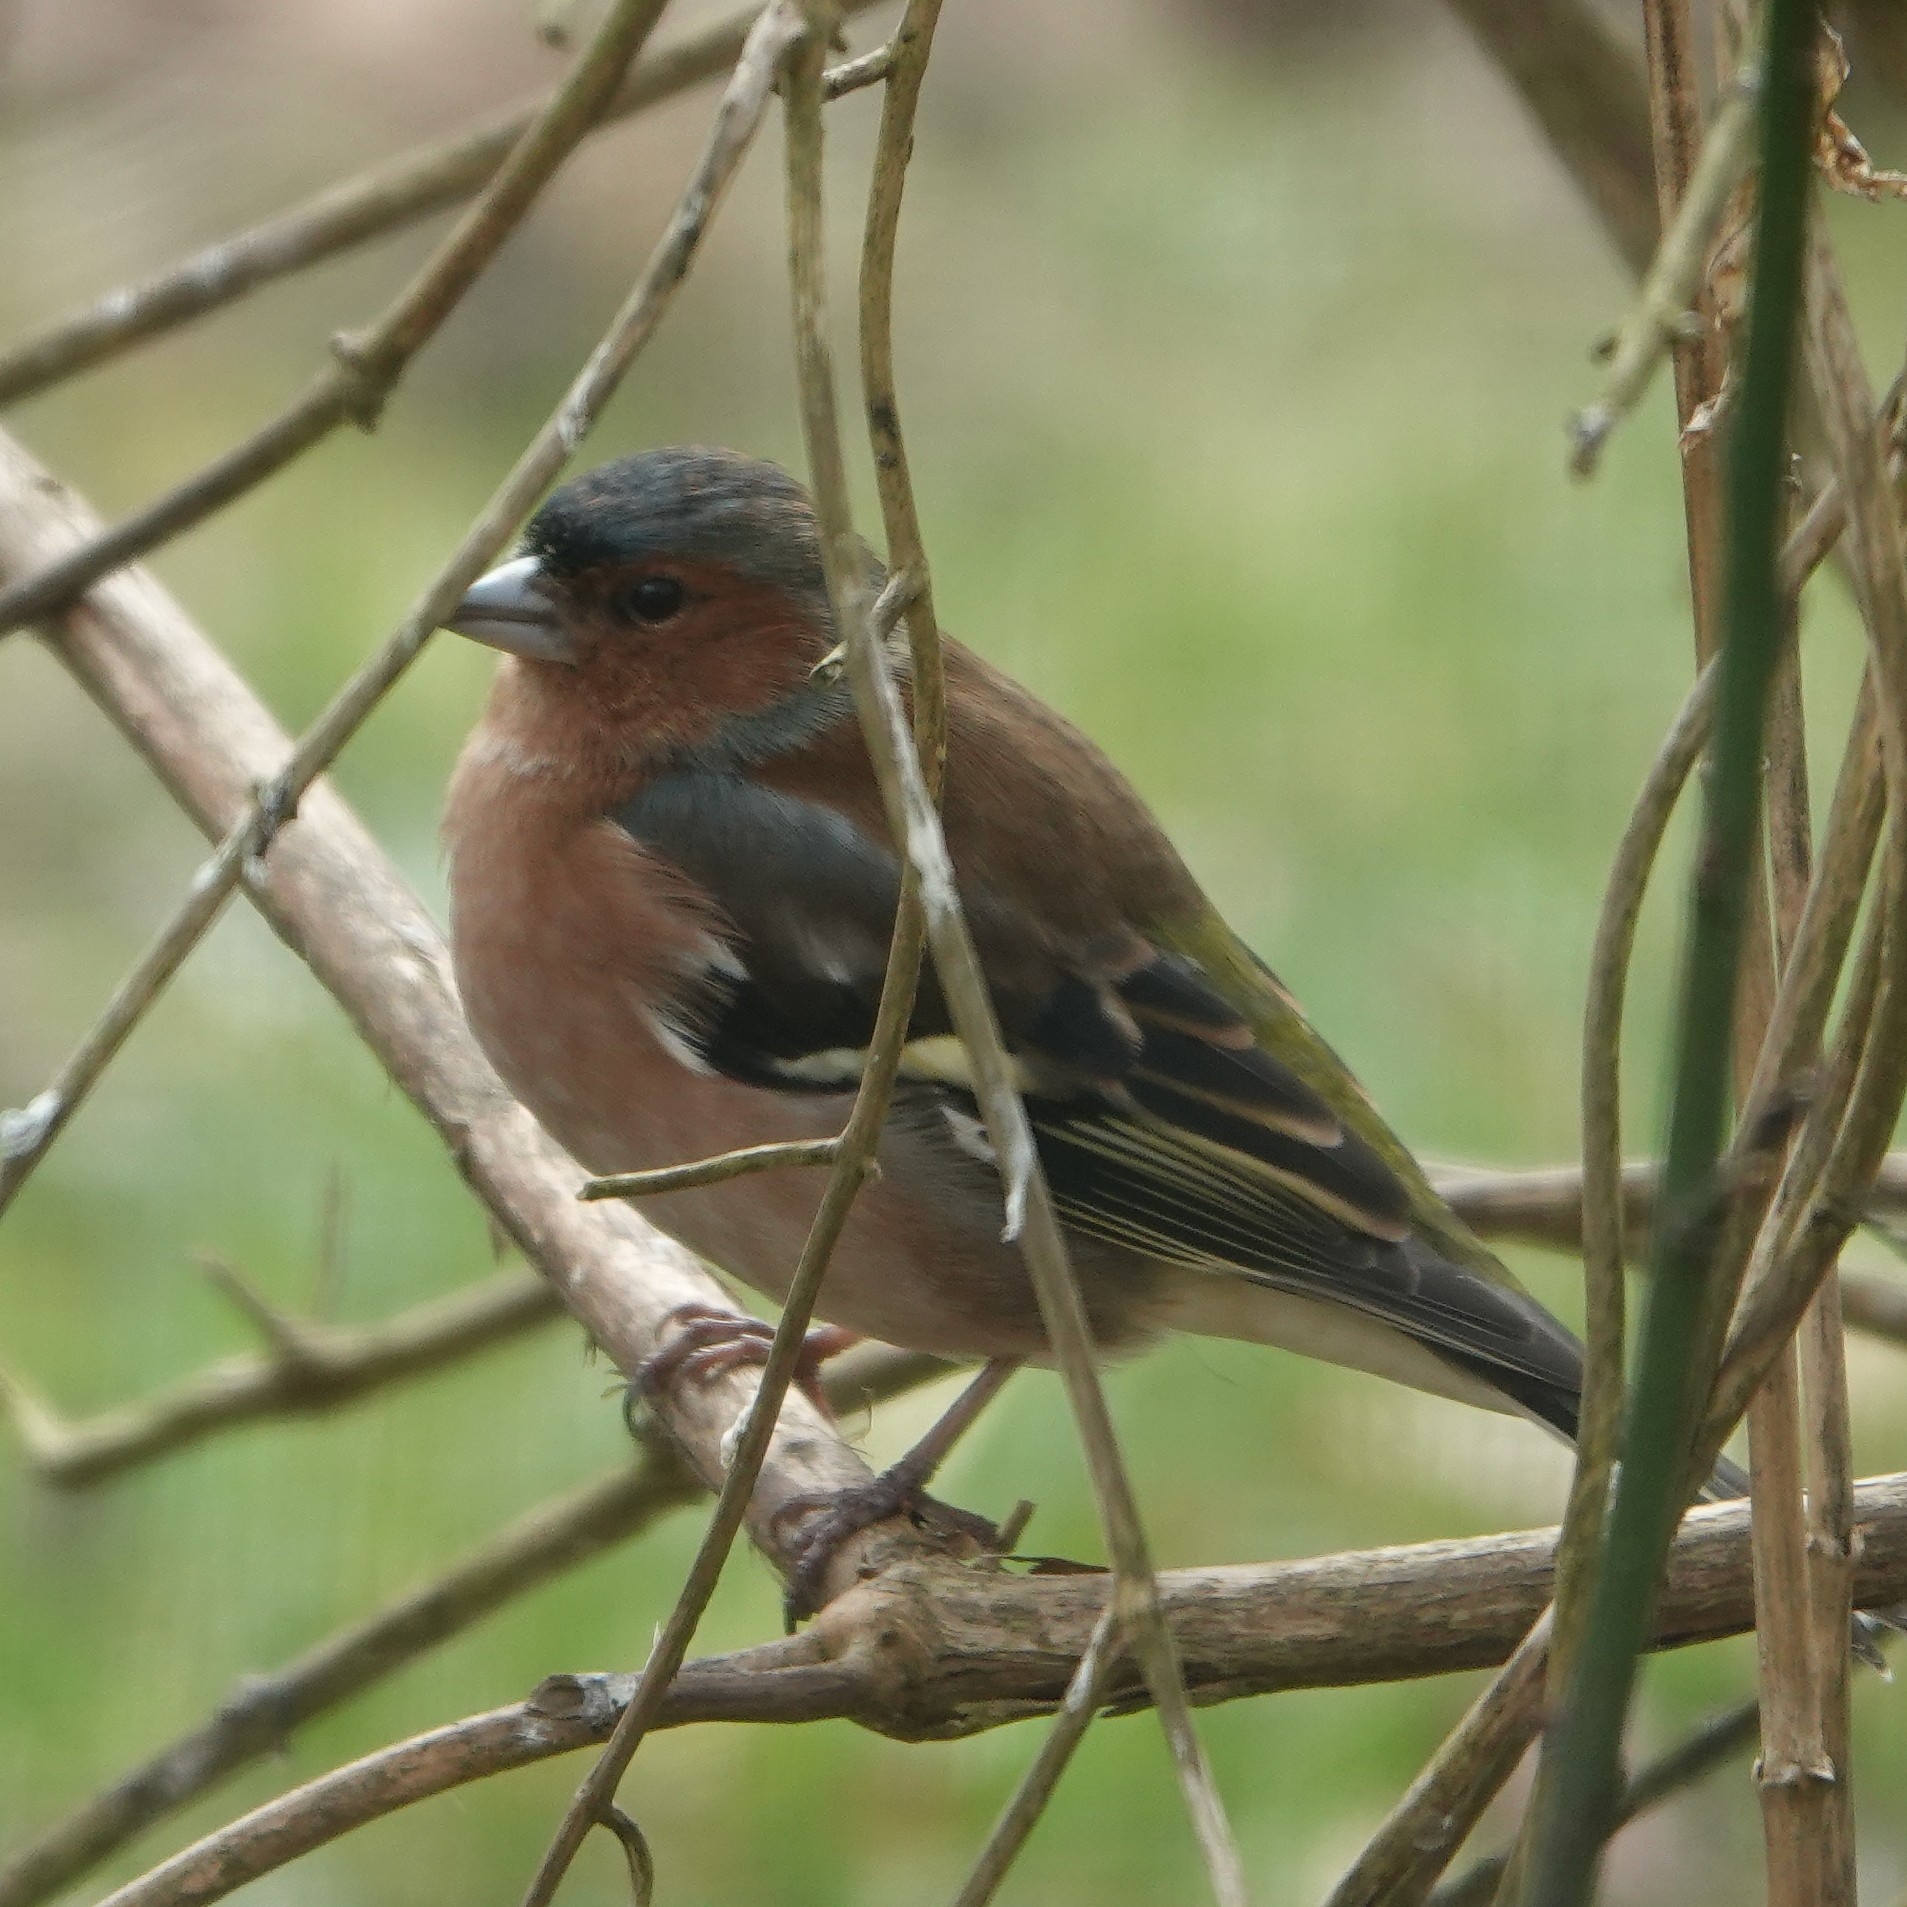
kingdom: Animalia
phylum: Chordata
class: Aves
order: Passeriformes
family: Fringillidae
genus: Fringilla
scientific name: Fringilla coelebs
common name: Common chaffinch
